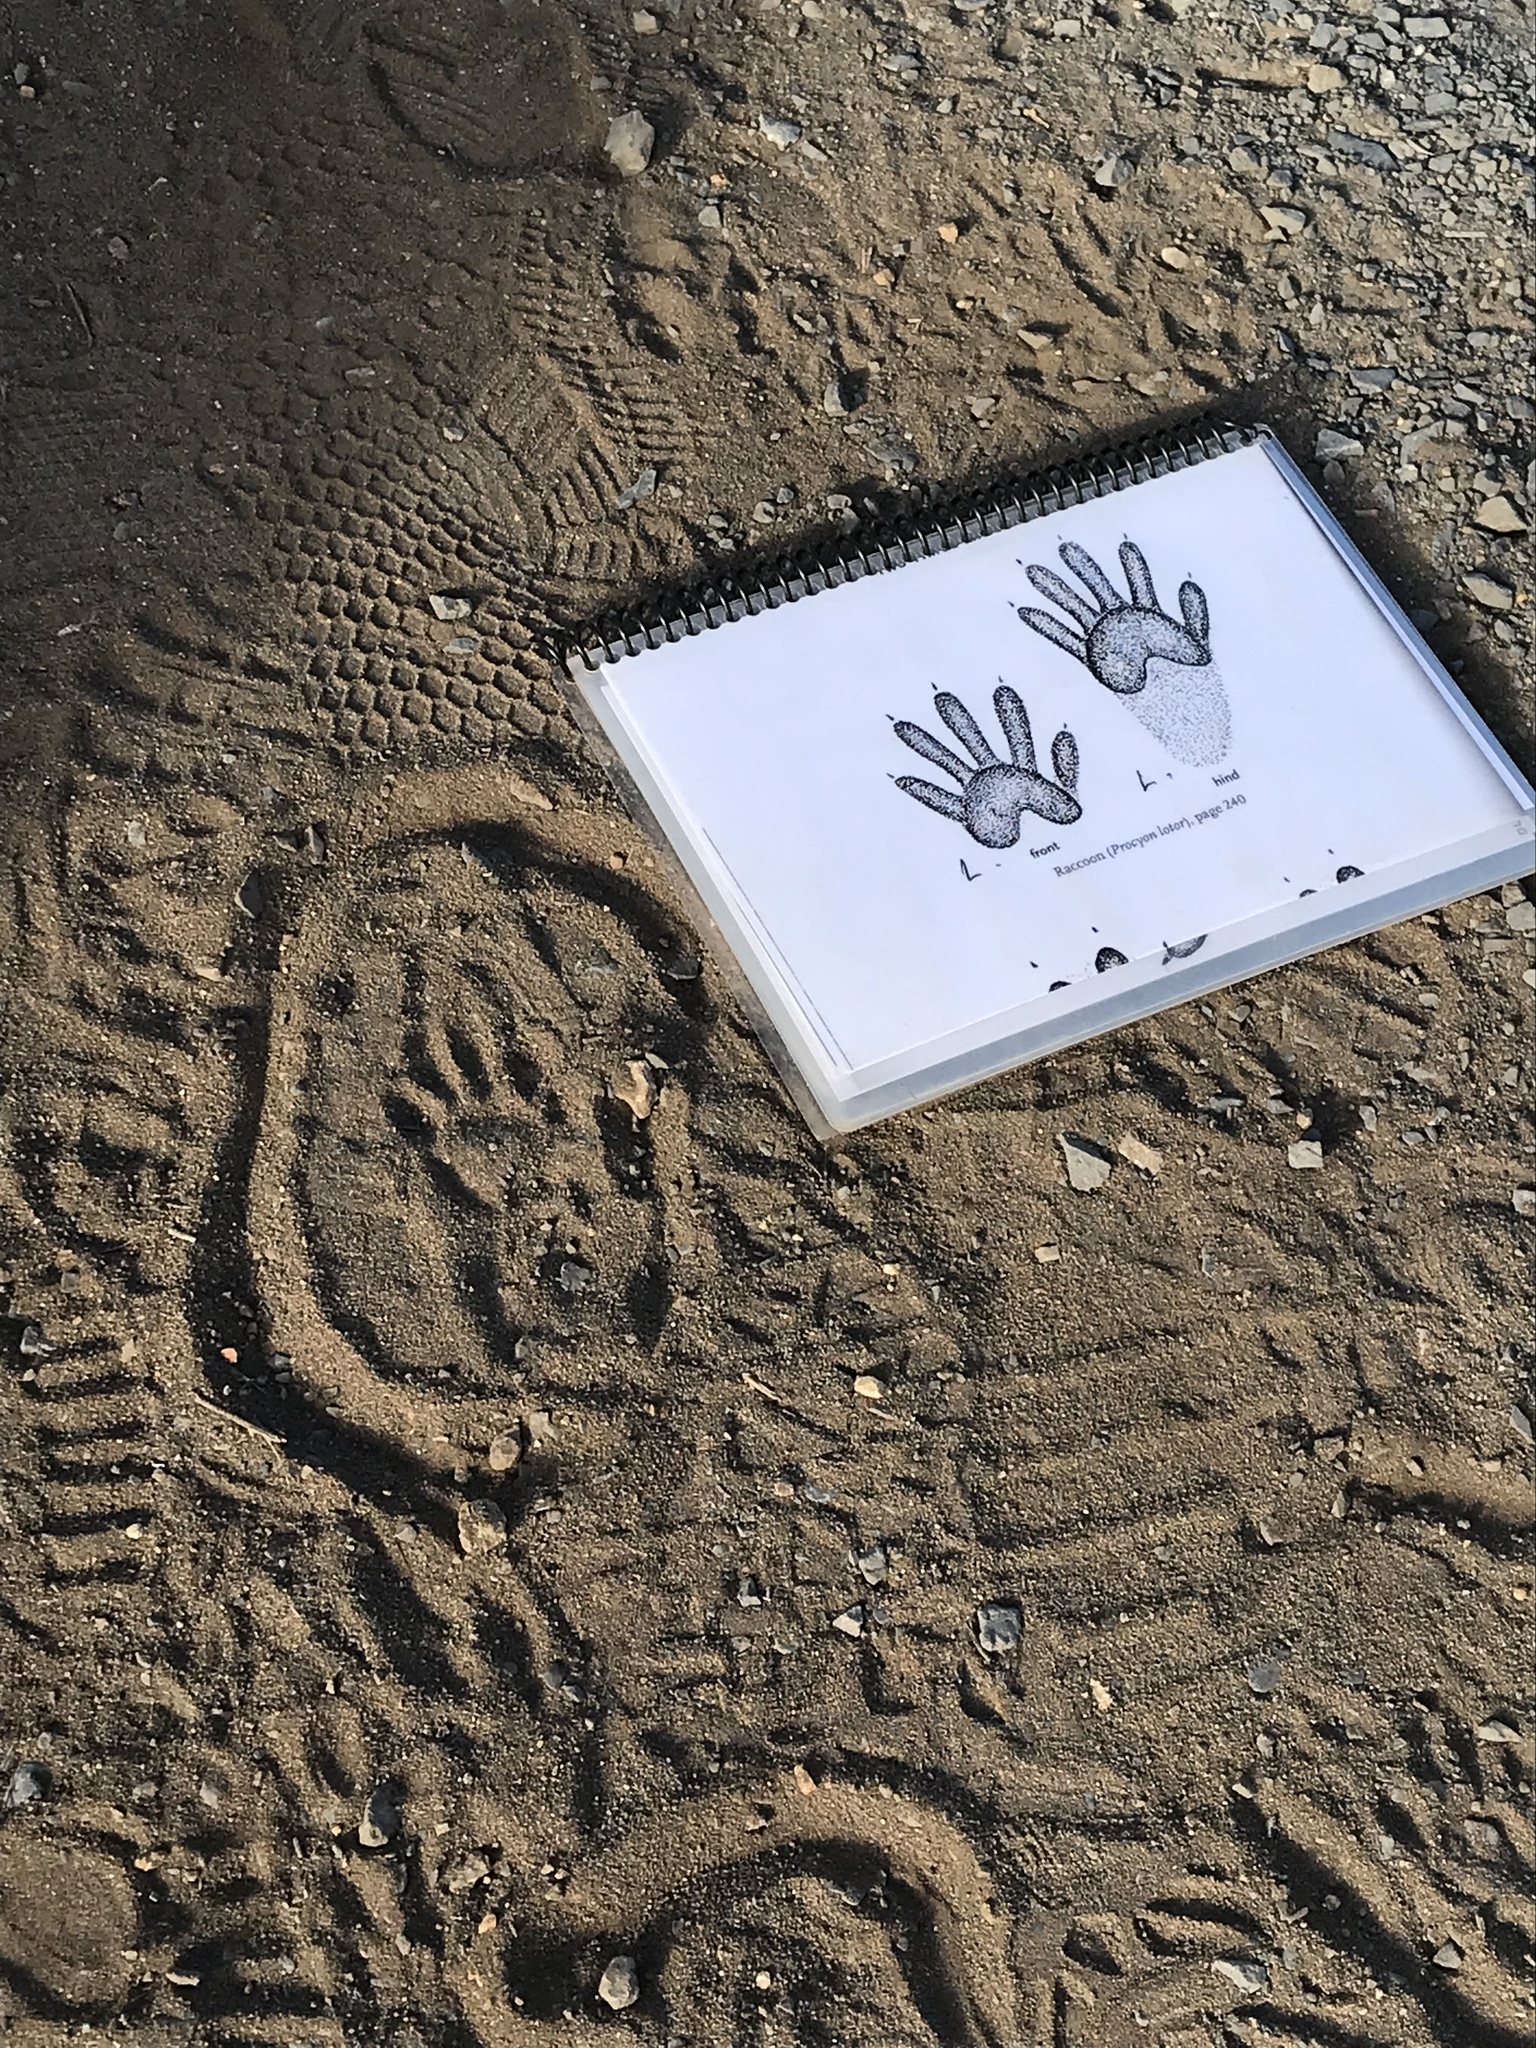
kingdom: Animalia
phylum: Chordata
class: Mammalia
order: Carnivora
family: Procyonidae
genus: Procyon
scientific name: Procyon lotor
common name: Raccoon
